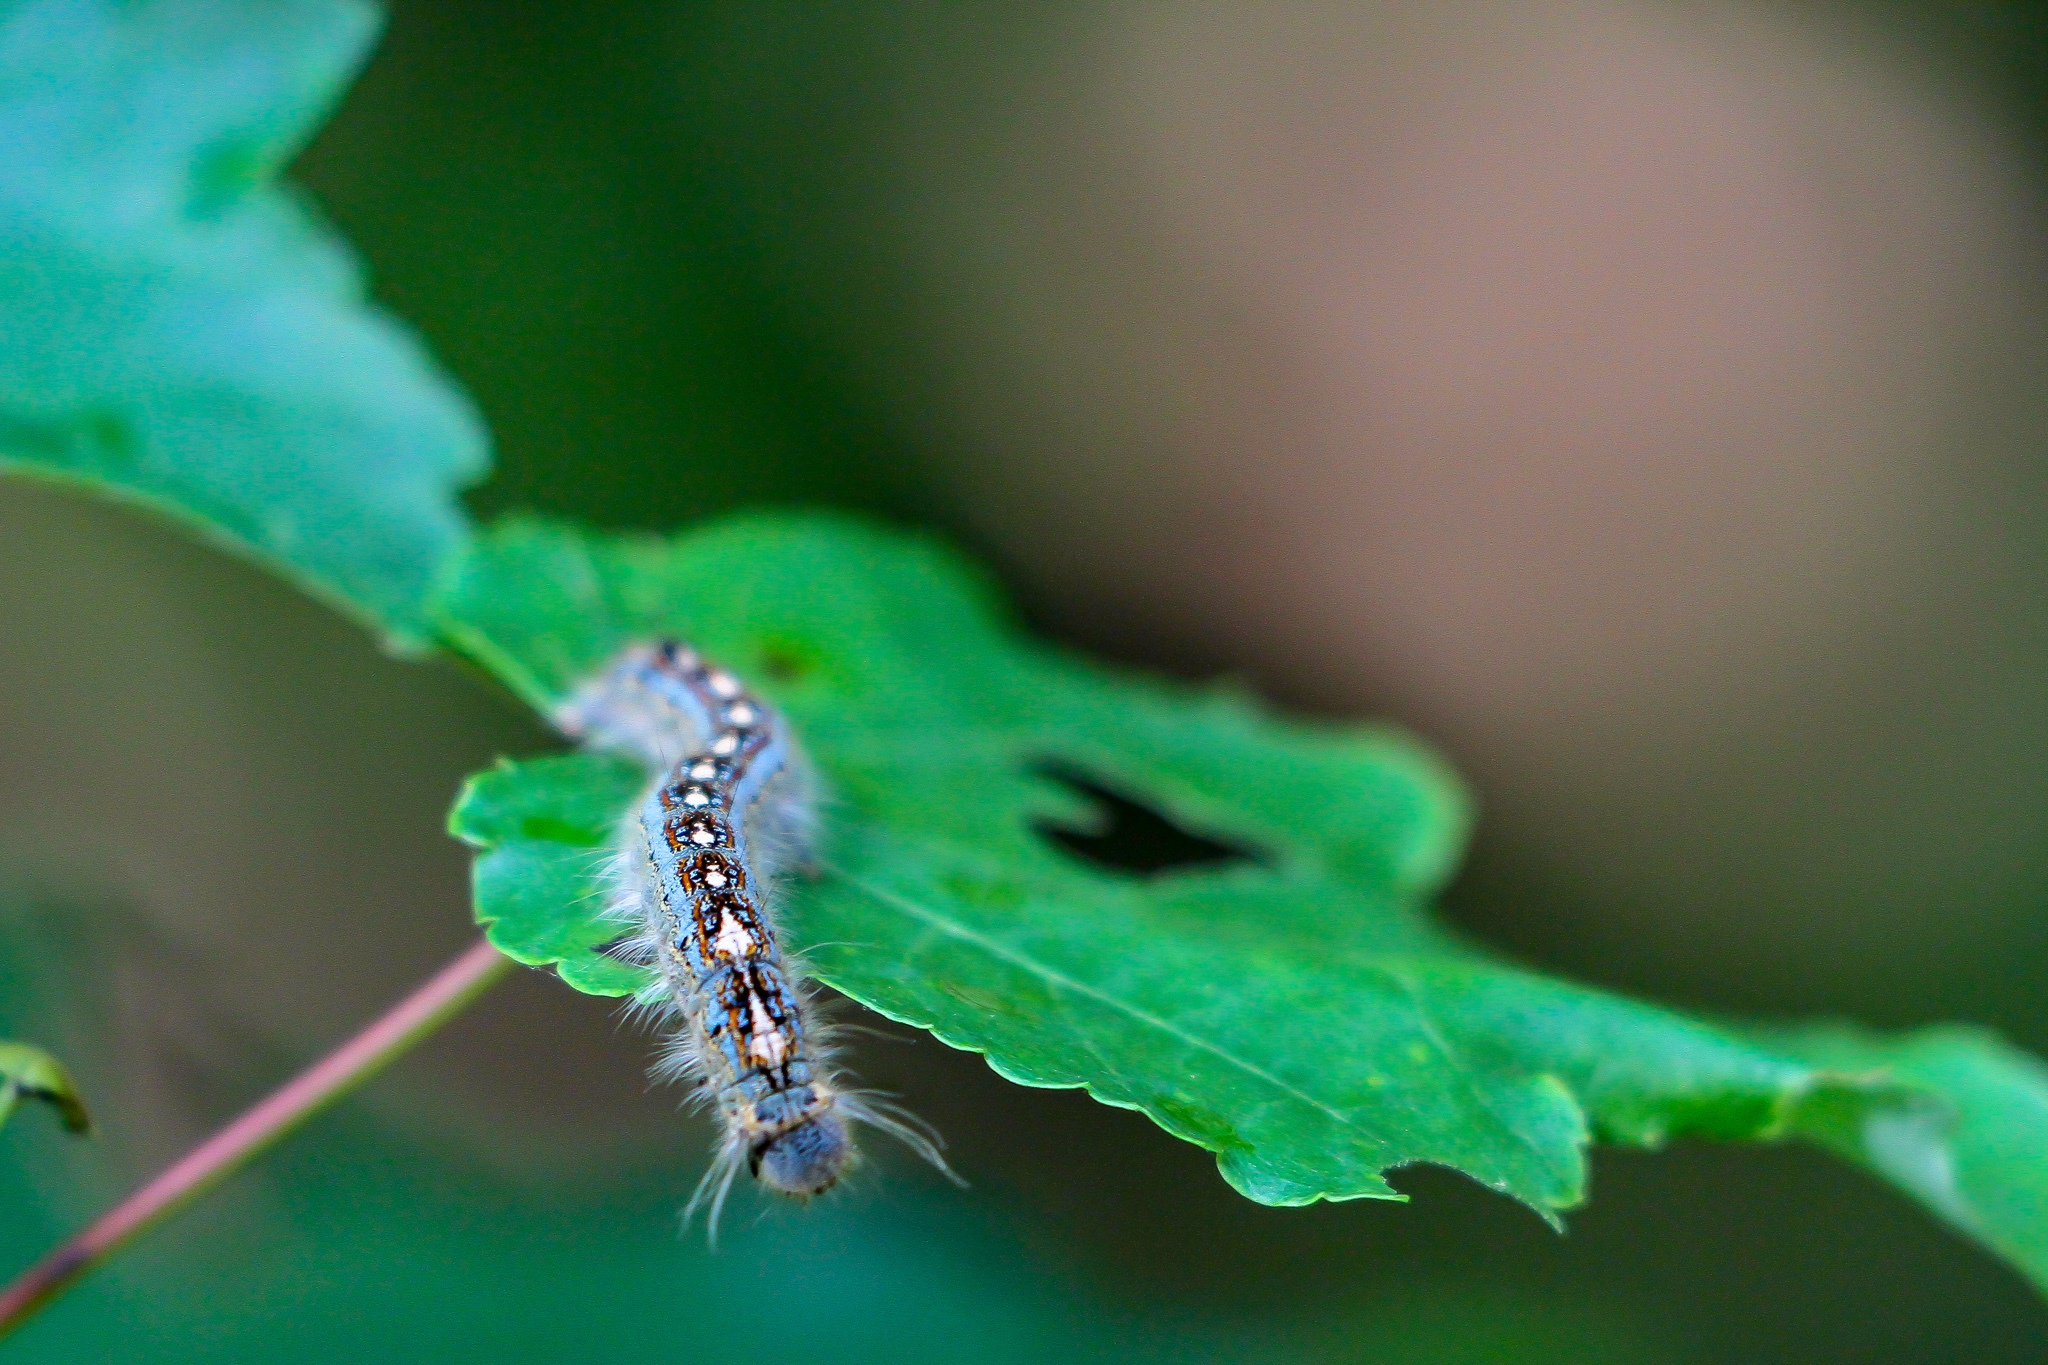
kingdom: Animalia
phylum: Arthropoda
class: Insecta
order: Lepidoptera
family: Lasiocampidae
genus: Malacosoma
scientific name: Malacosoma disstria
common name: Forest tent caterpillar
